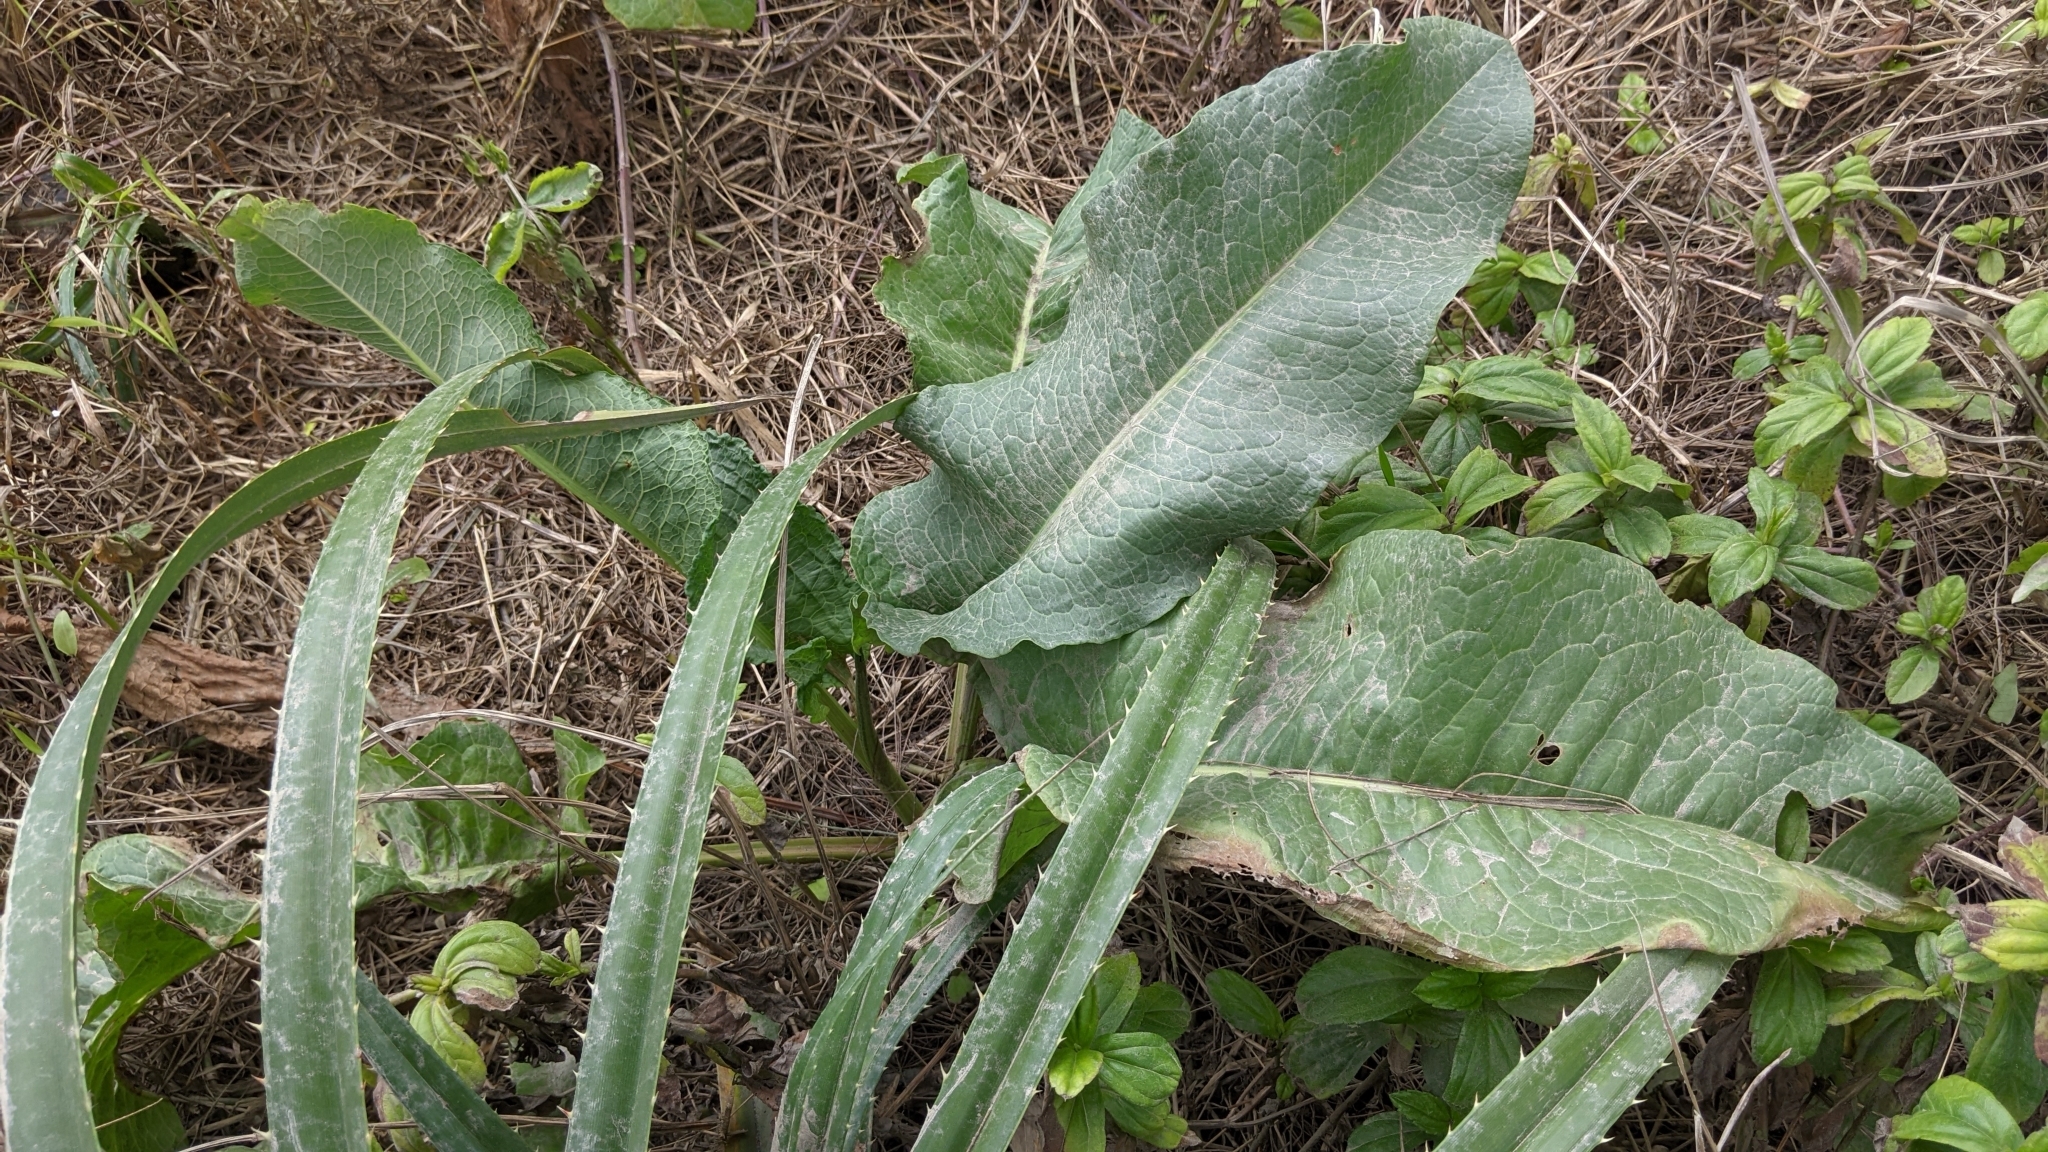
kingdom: Plantae
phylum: Tracheophyta
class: Magnoliopsida
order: Caryophyllales
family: Polygonaceae
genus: Rumex
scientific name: Rumex japonicus
